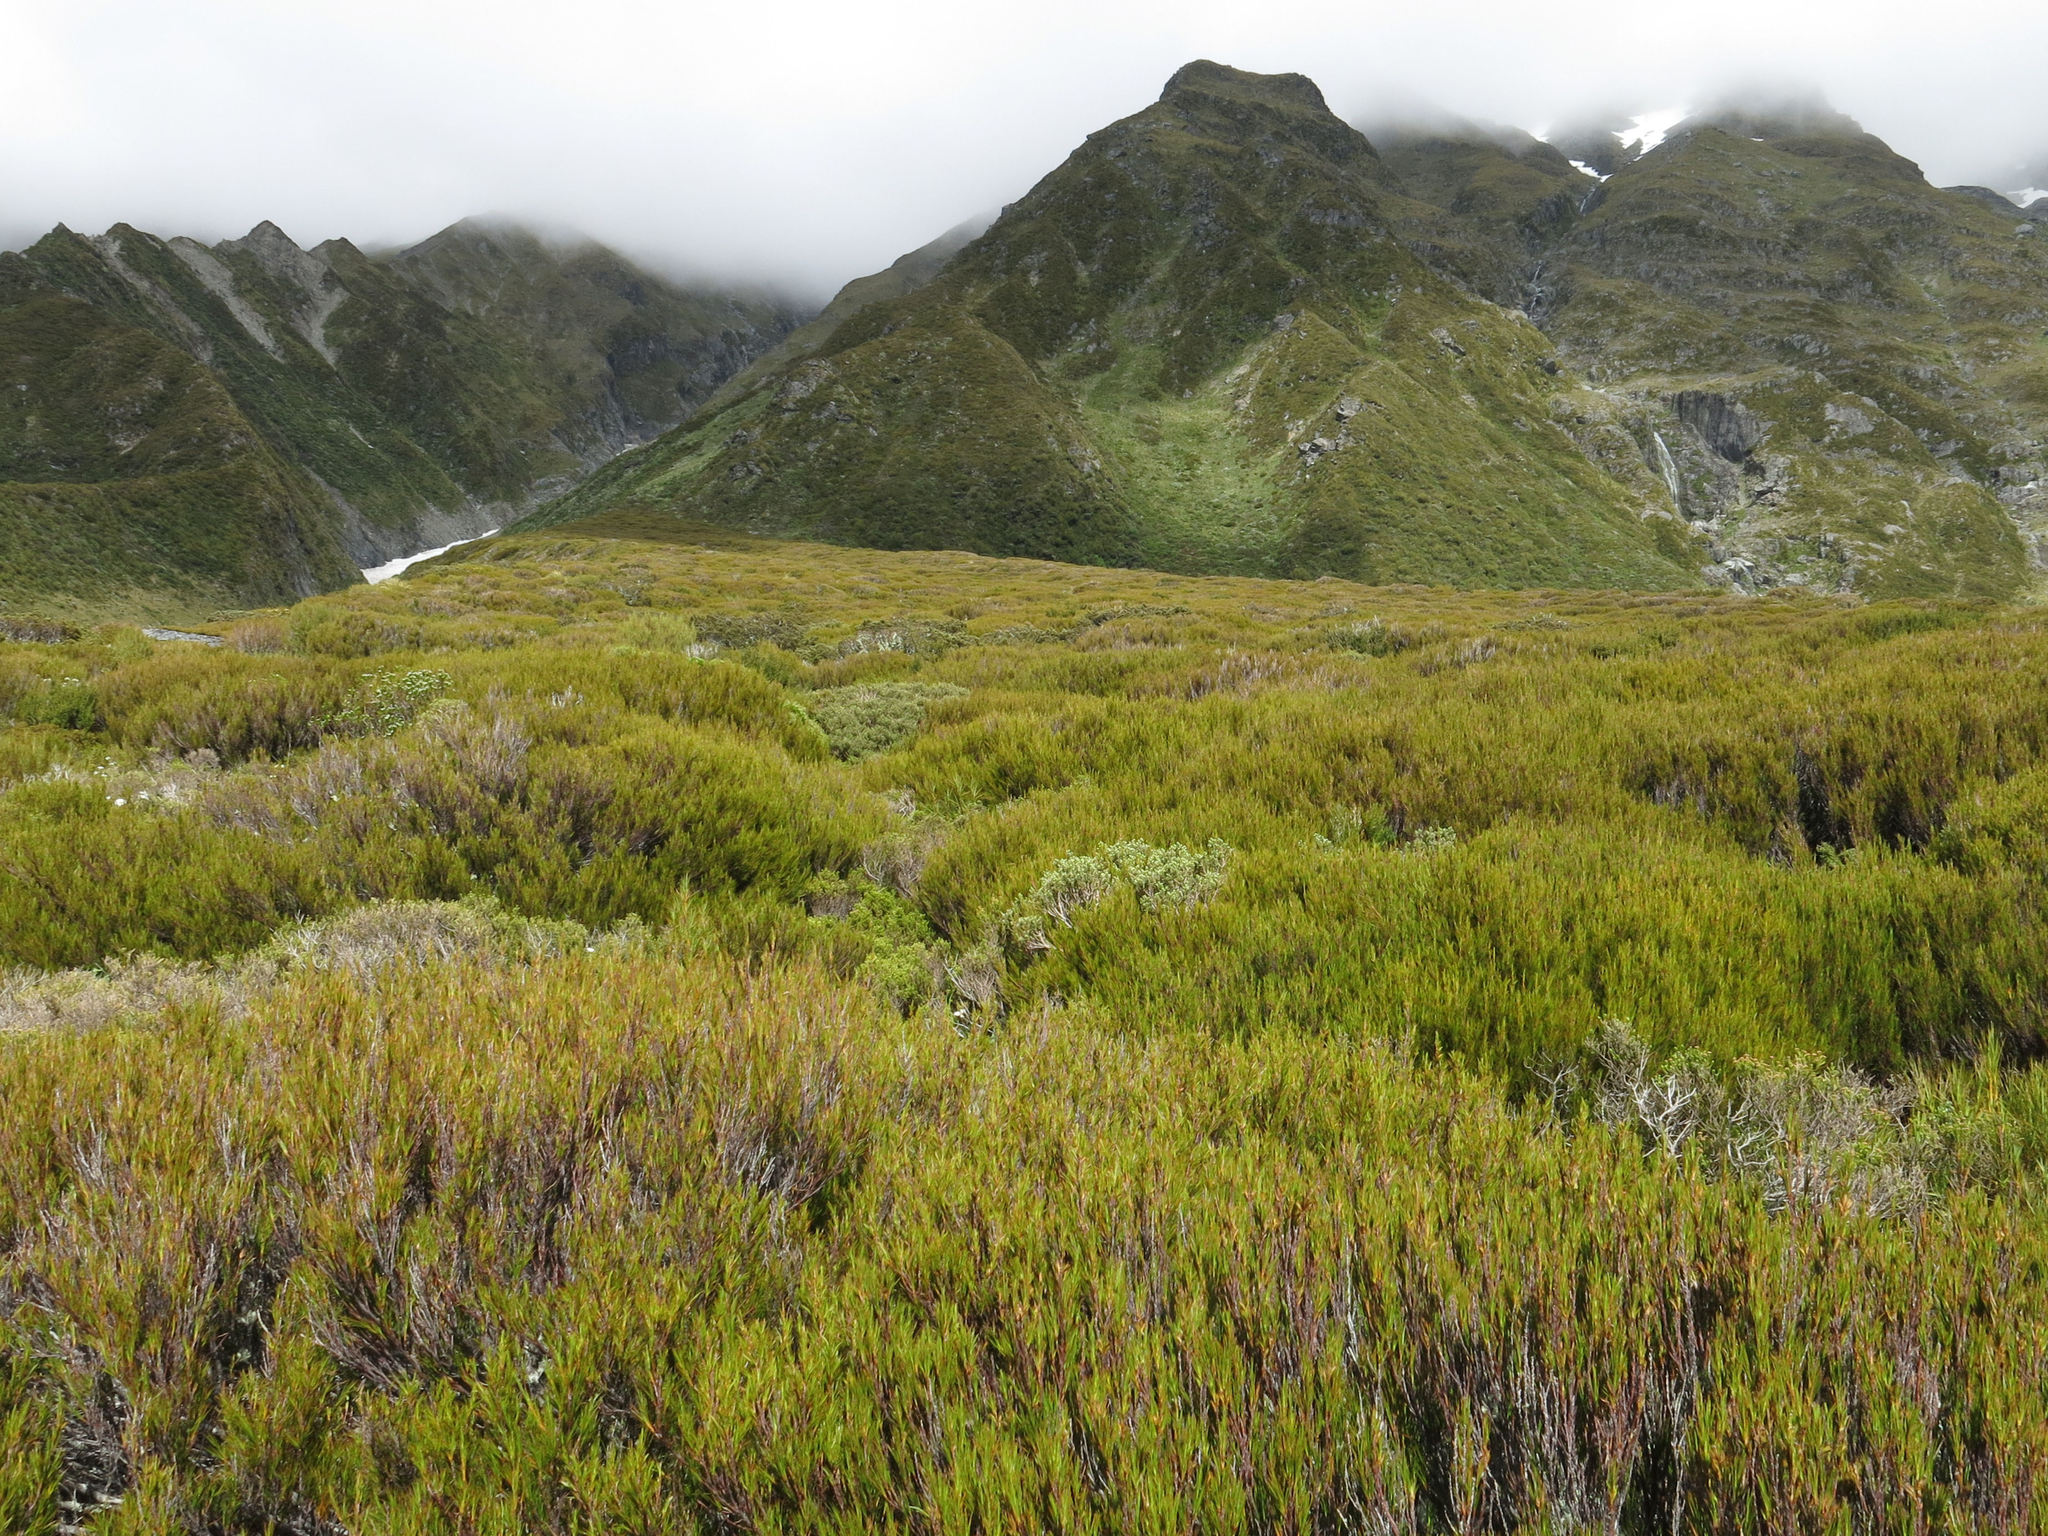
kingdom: Plantae
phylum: Tracheophyta
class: Magnoliopsida
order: Ericales
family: Ericaceae
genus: Dracophyllum
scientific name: Dracophyllum rosmarinifolium
